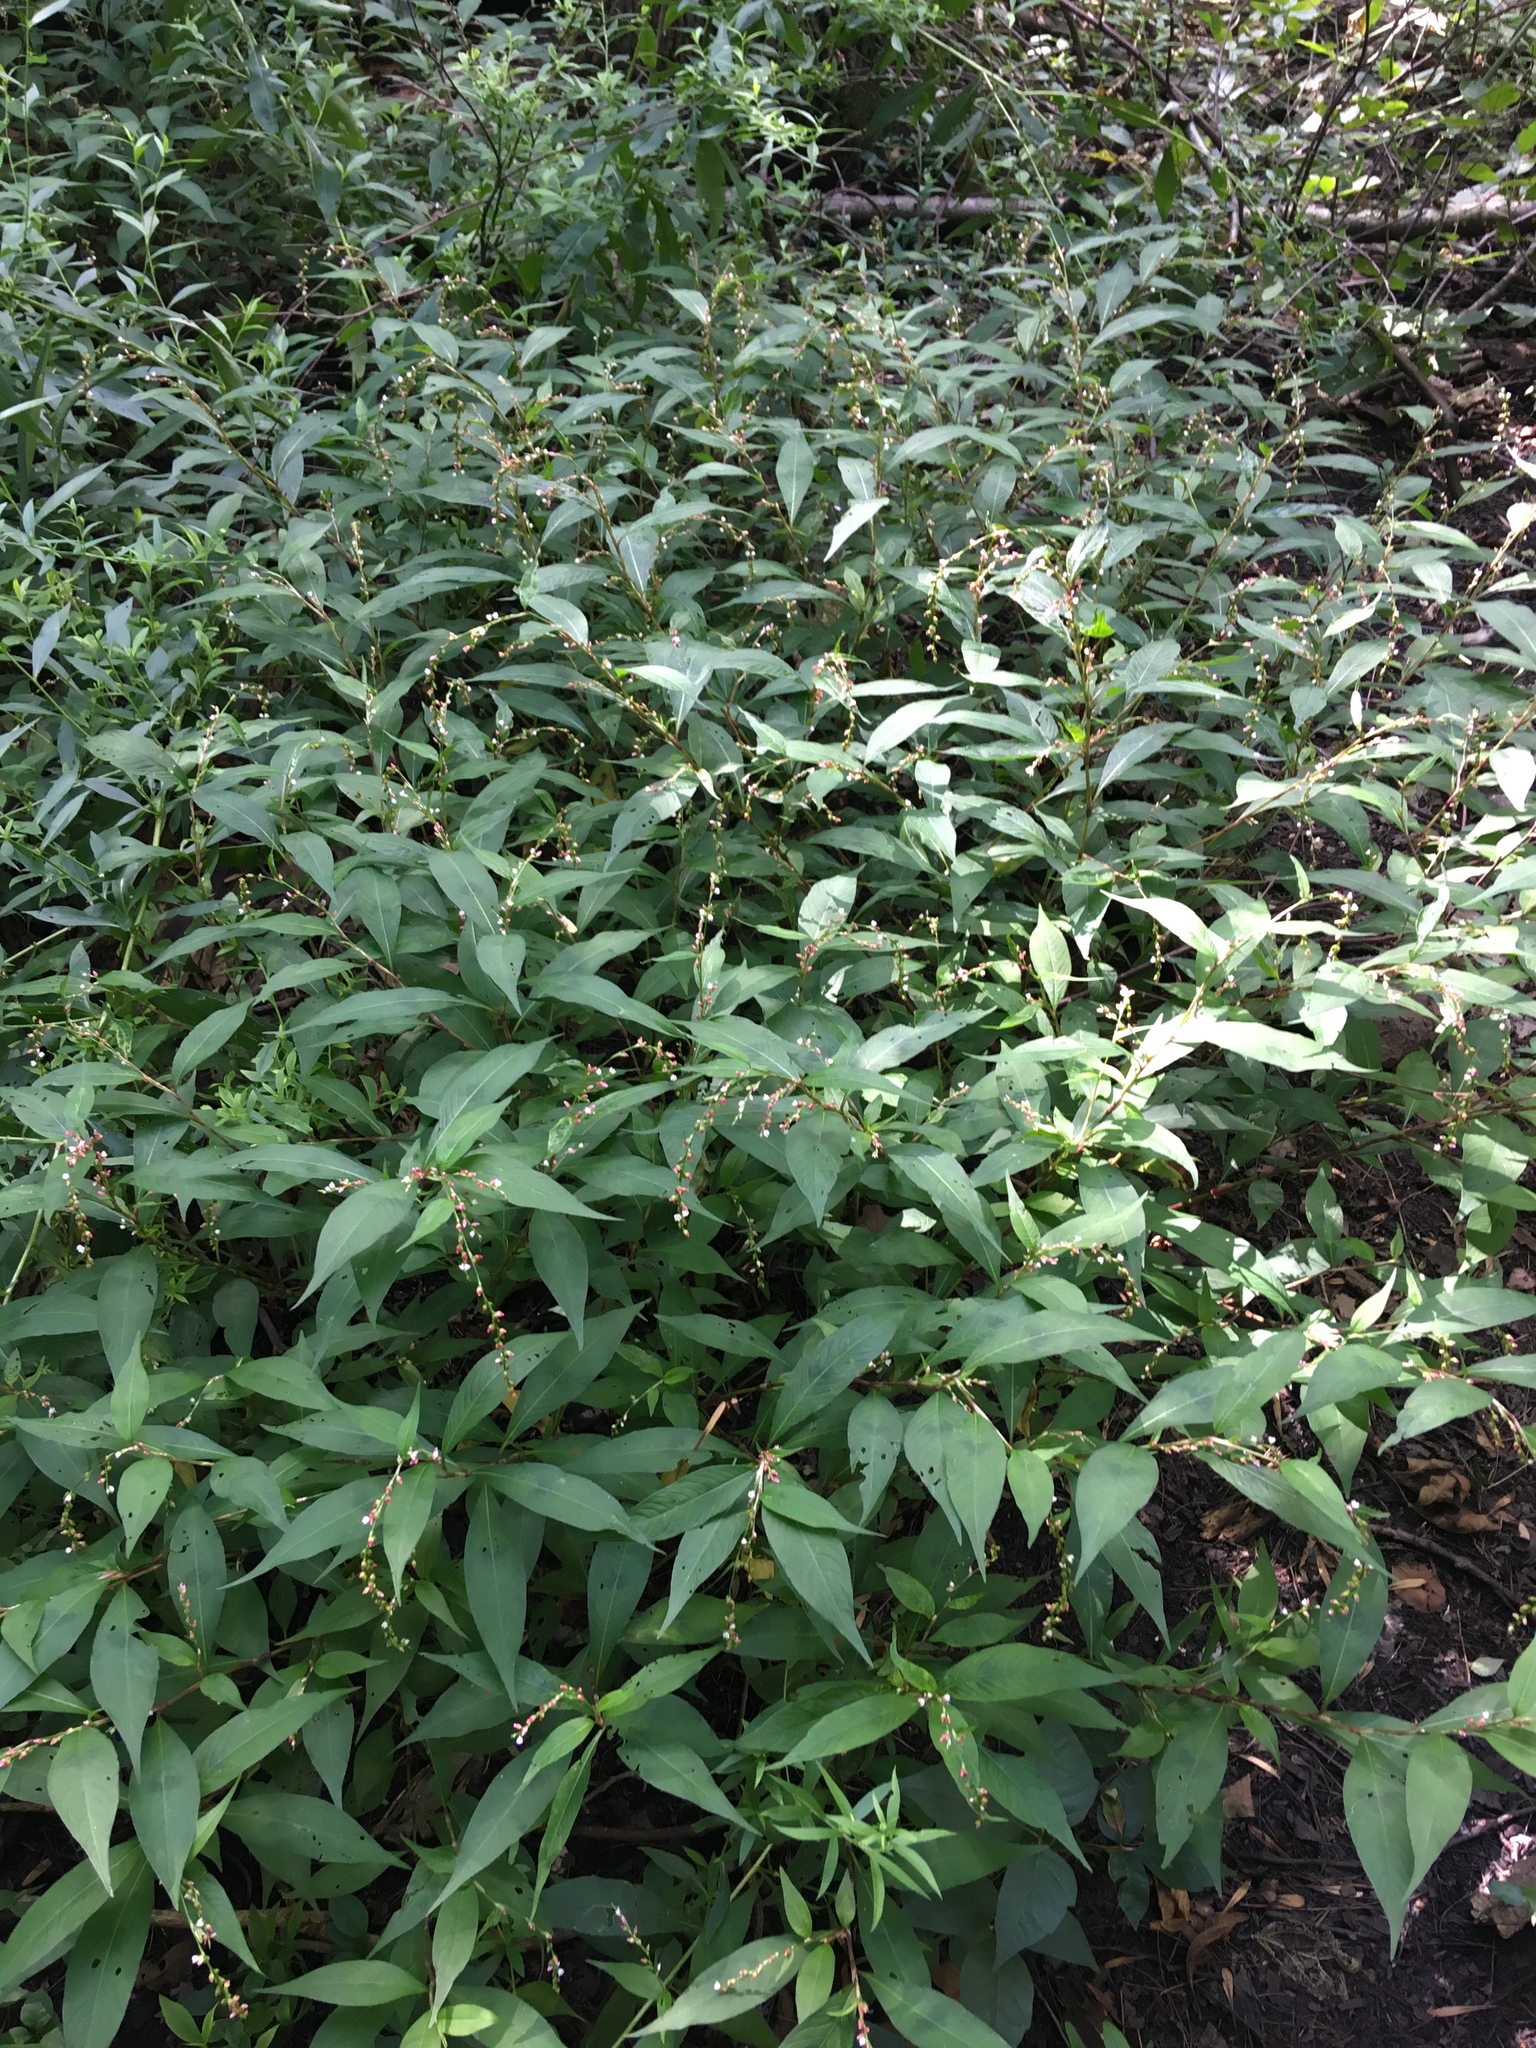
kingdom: Plantae
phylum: Tracheophyta
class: Magnoliopsida
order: Caryophyllales
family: Polygonaceae
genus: Persicaria
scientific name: Persicaria hydropiper
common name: Water-pepper
